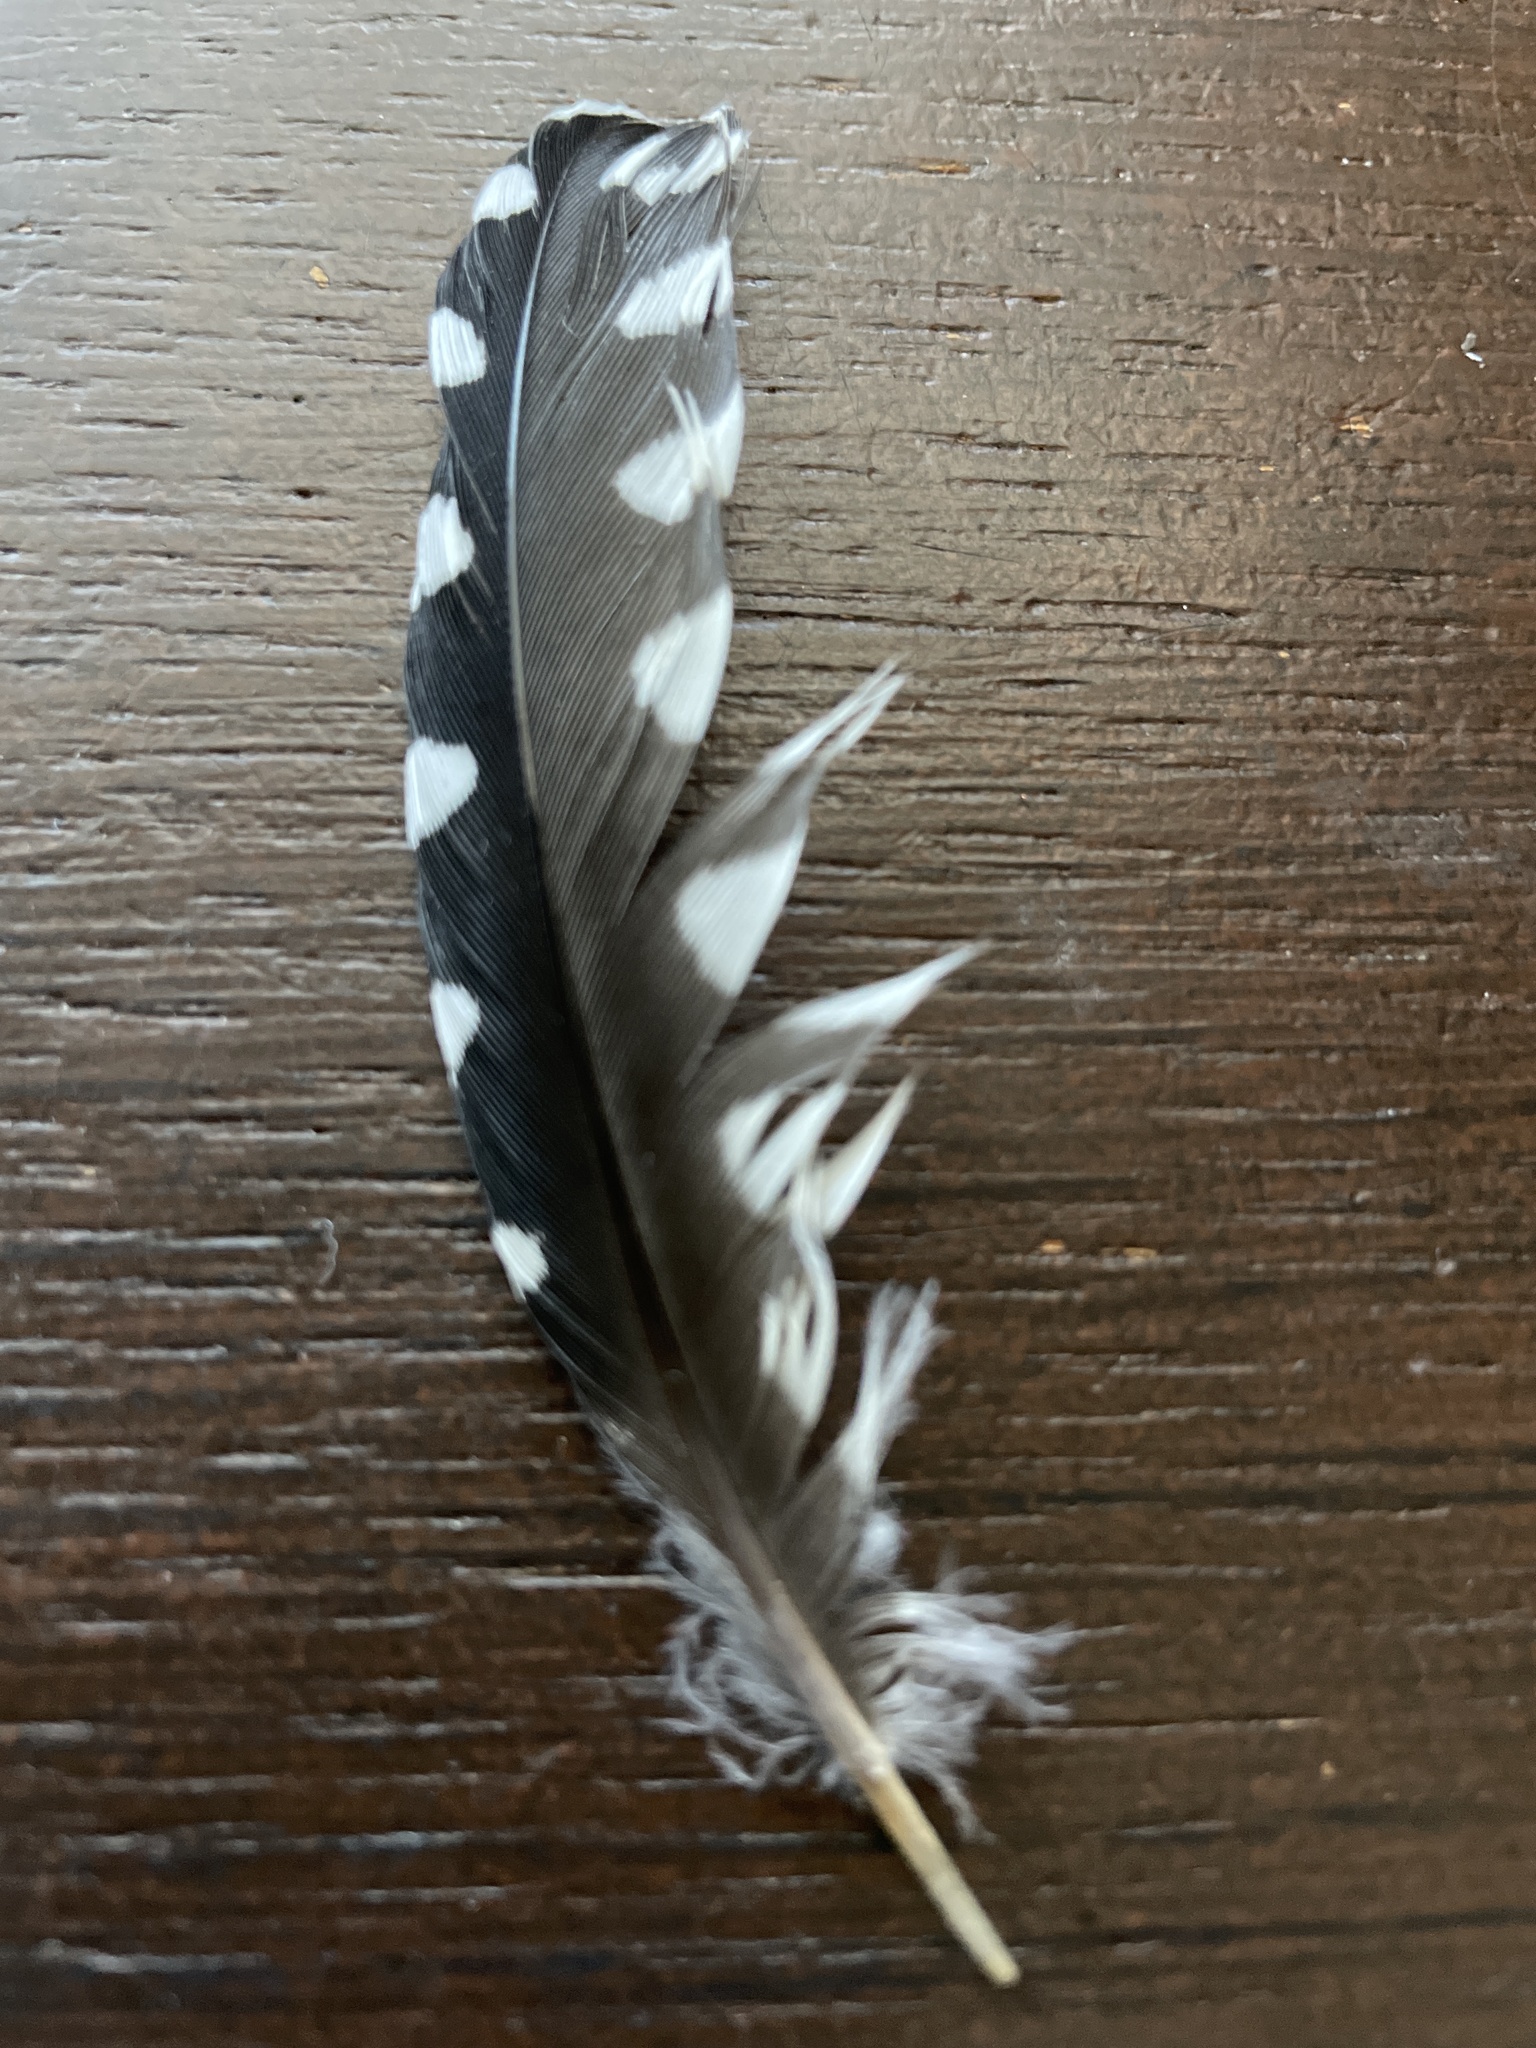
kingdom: Animalia
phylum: Chordata
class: Aves
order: Piciformes
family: Picidae
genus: Melanerpes
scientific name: Melanerpes carolinus
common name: Red-bellied woodpecker
